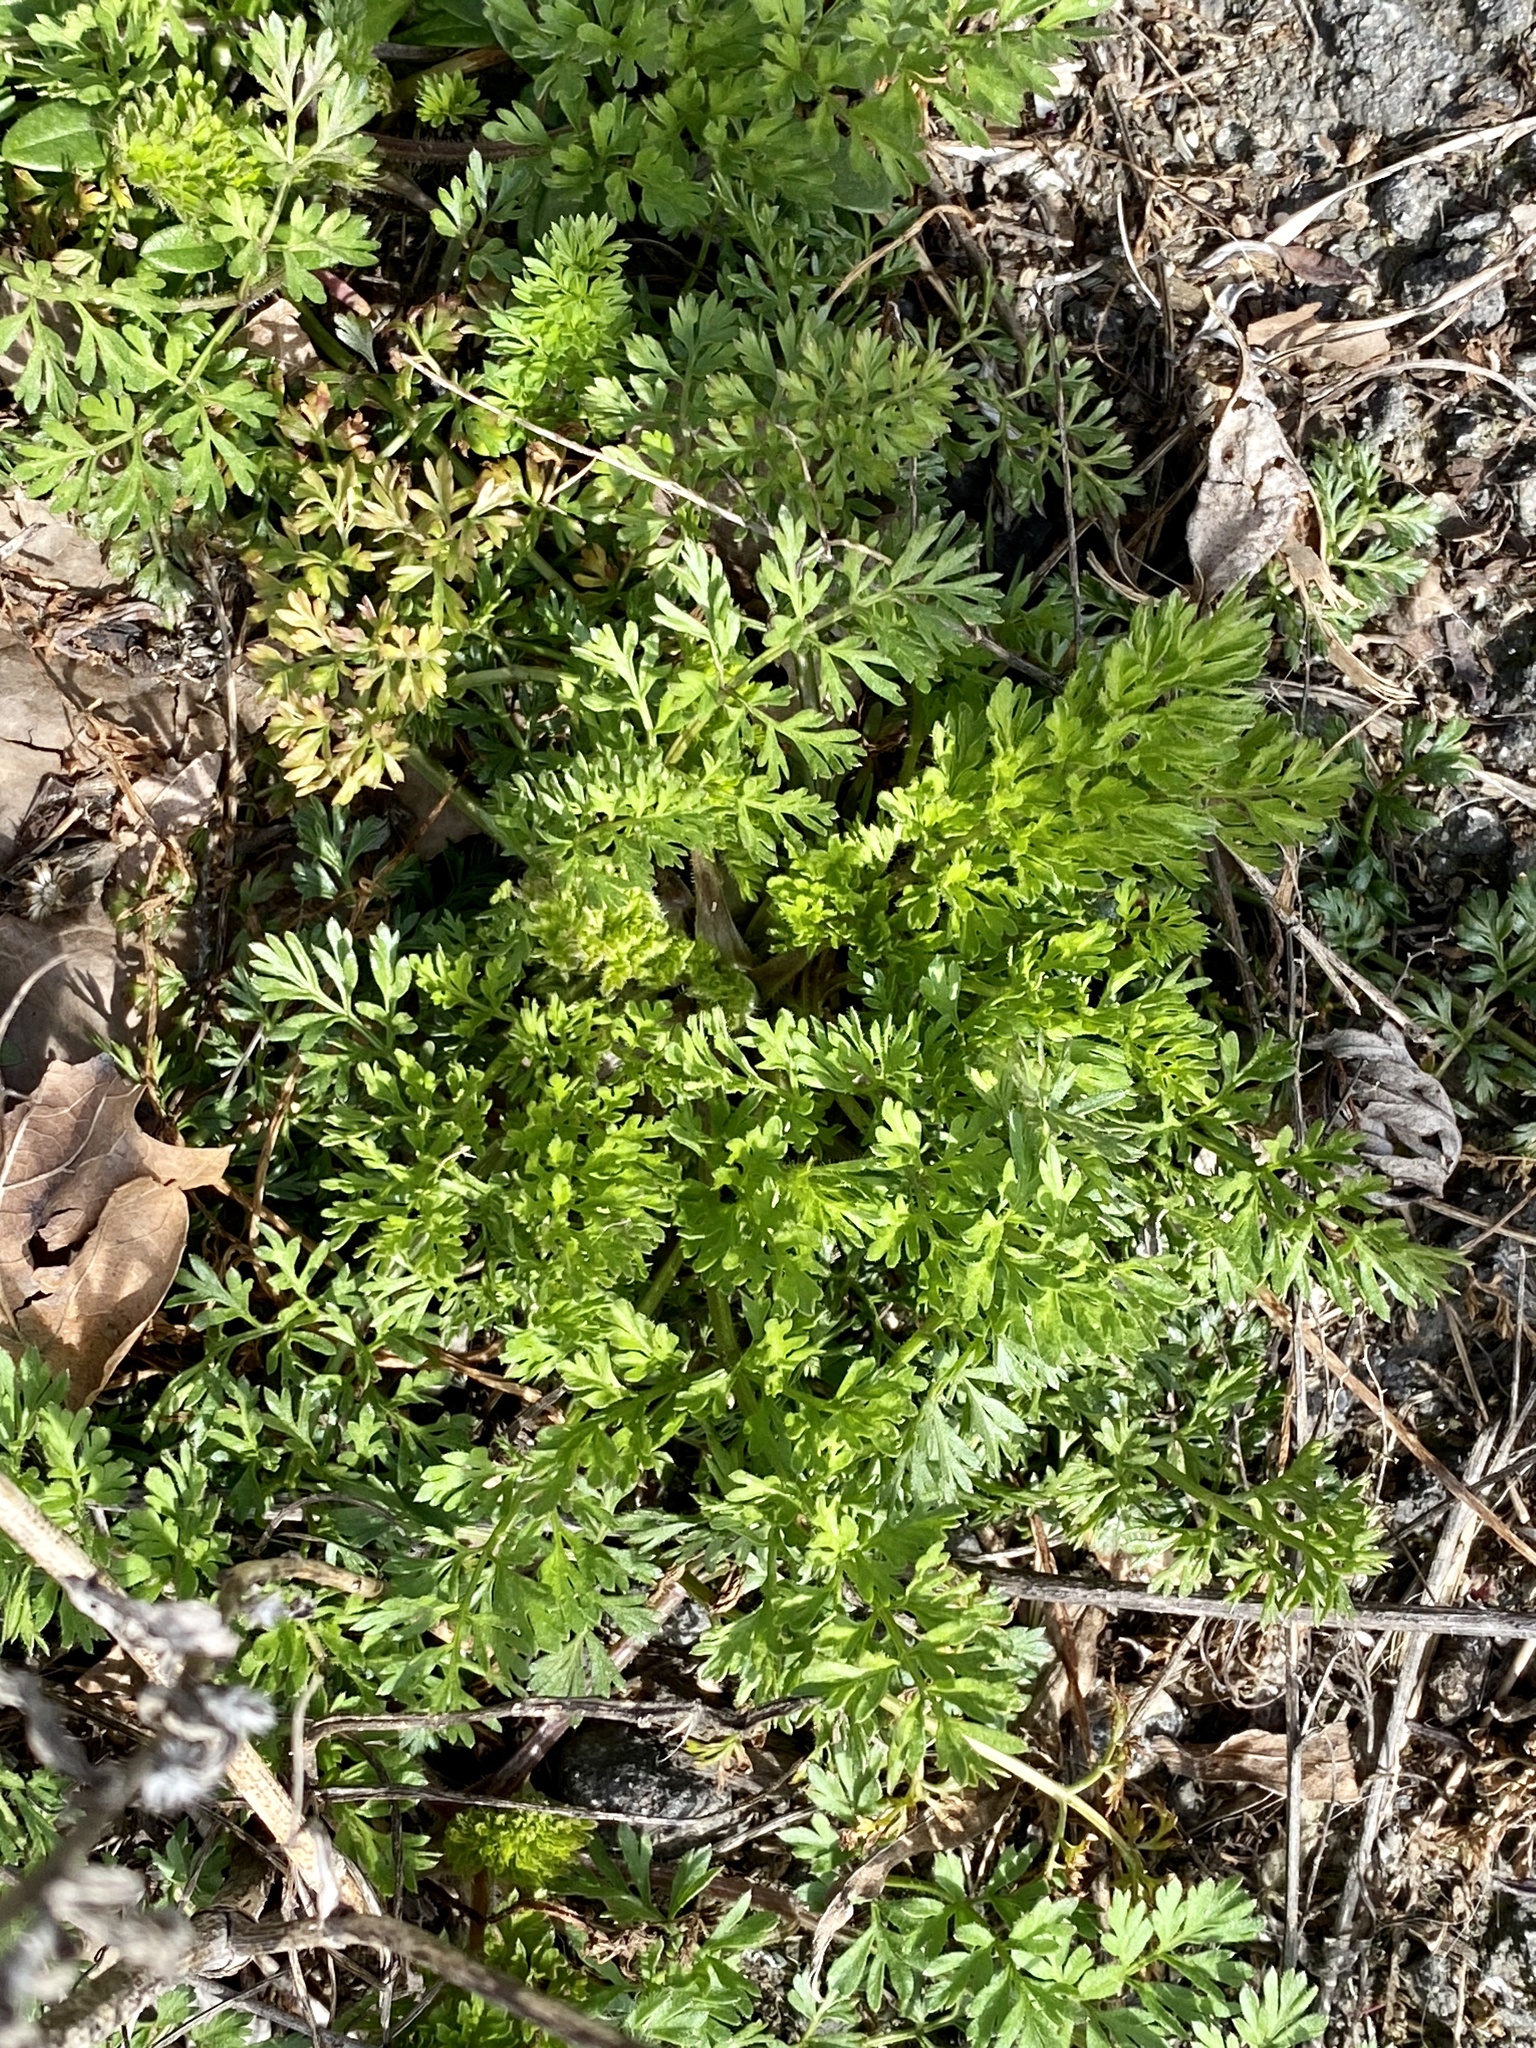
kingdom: Plantae
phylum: Tracheophyta
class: Magnoliopsida
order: Apiales
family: Apiaceae
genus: Daucus
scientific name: Daucus carota
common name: Wild carrot
